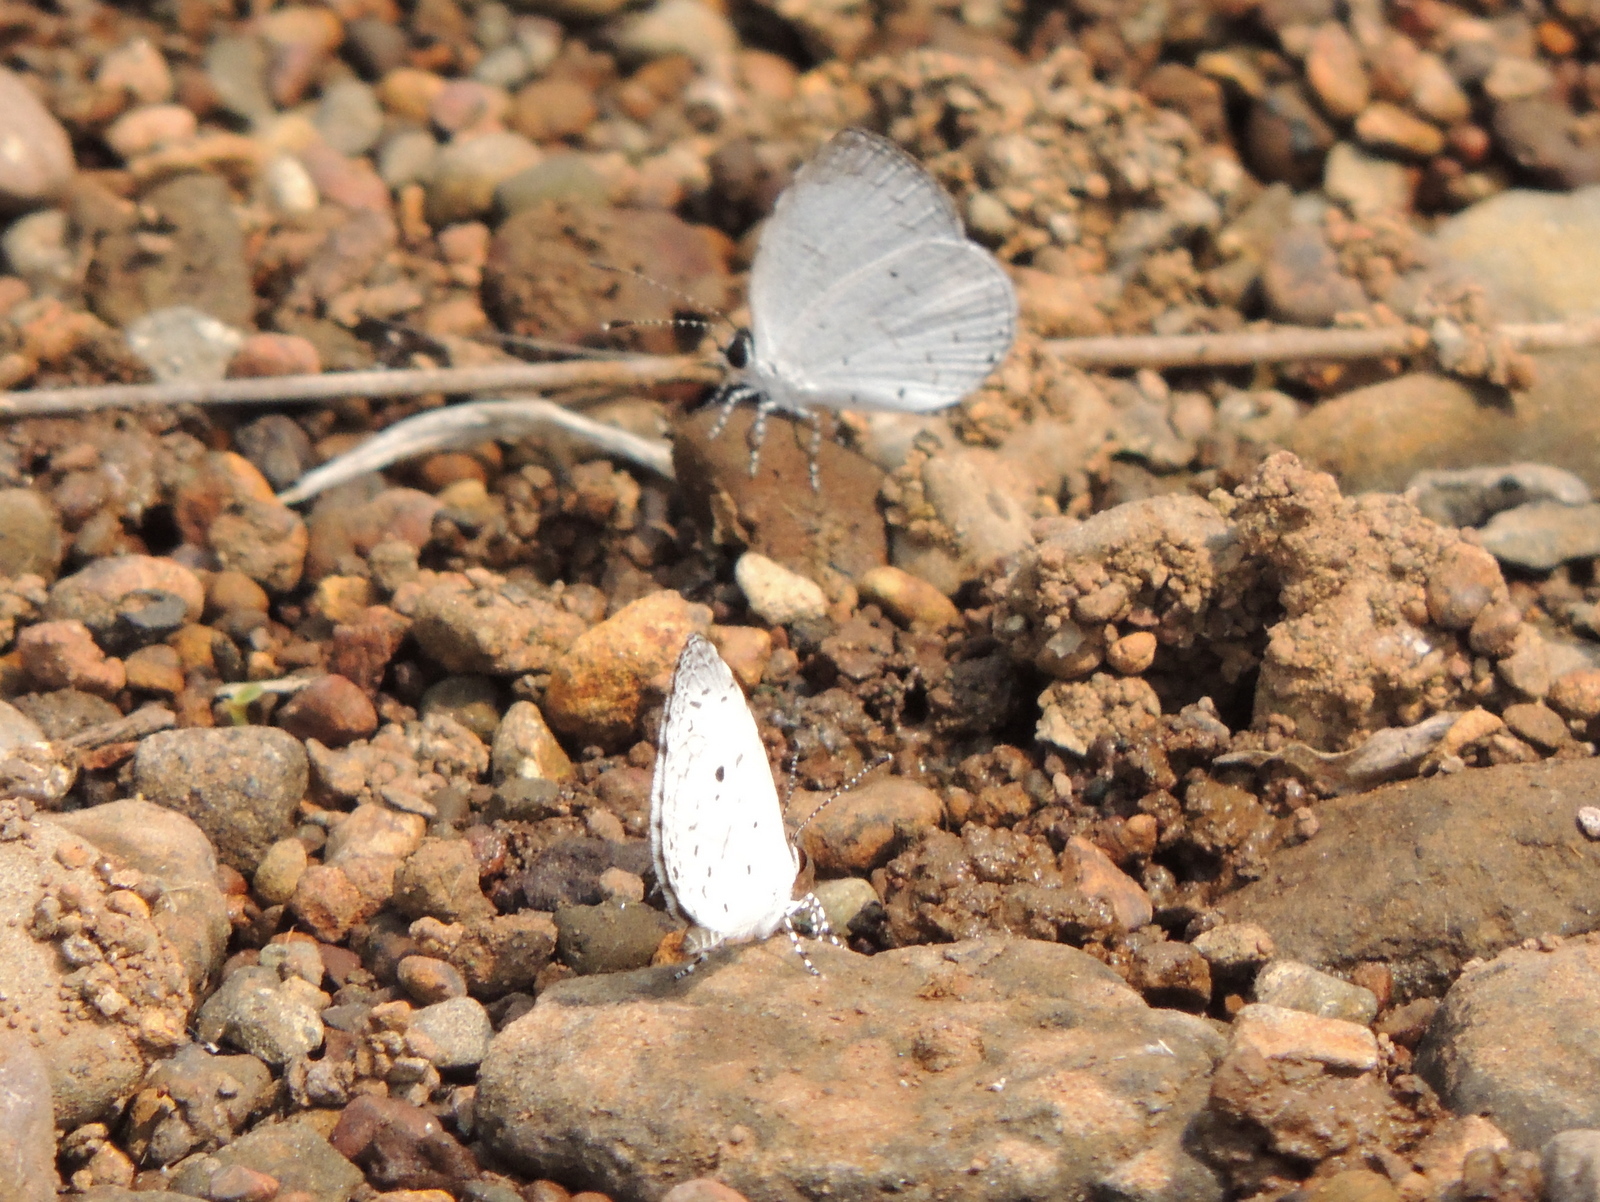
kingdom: Animalia
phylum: Arthropoda
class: Insecta
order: Lepidoptera
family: Lycaenidae
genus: Neopithecops
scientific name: Neopithecops zalmora
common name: Quaker
